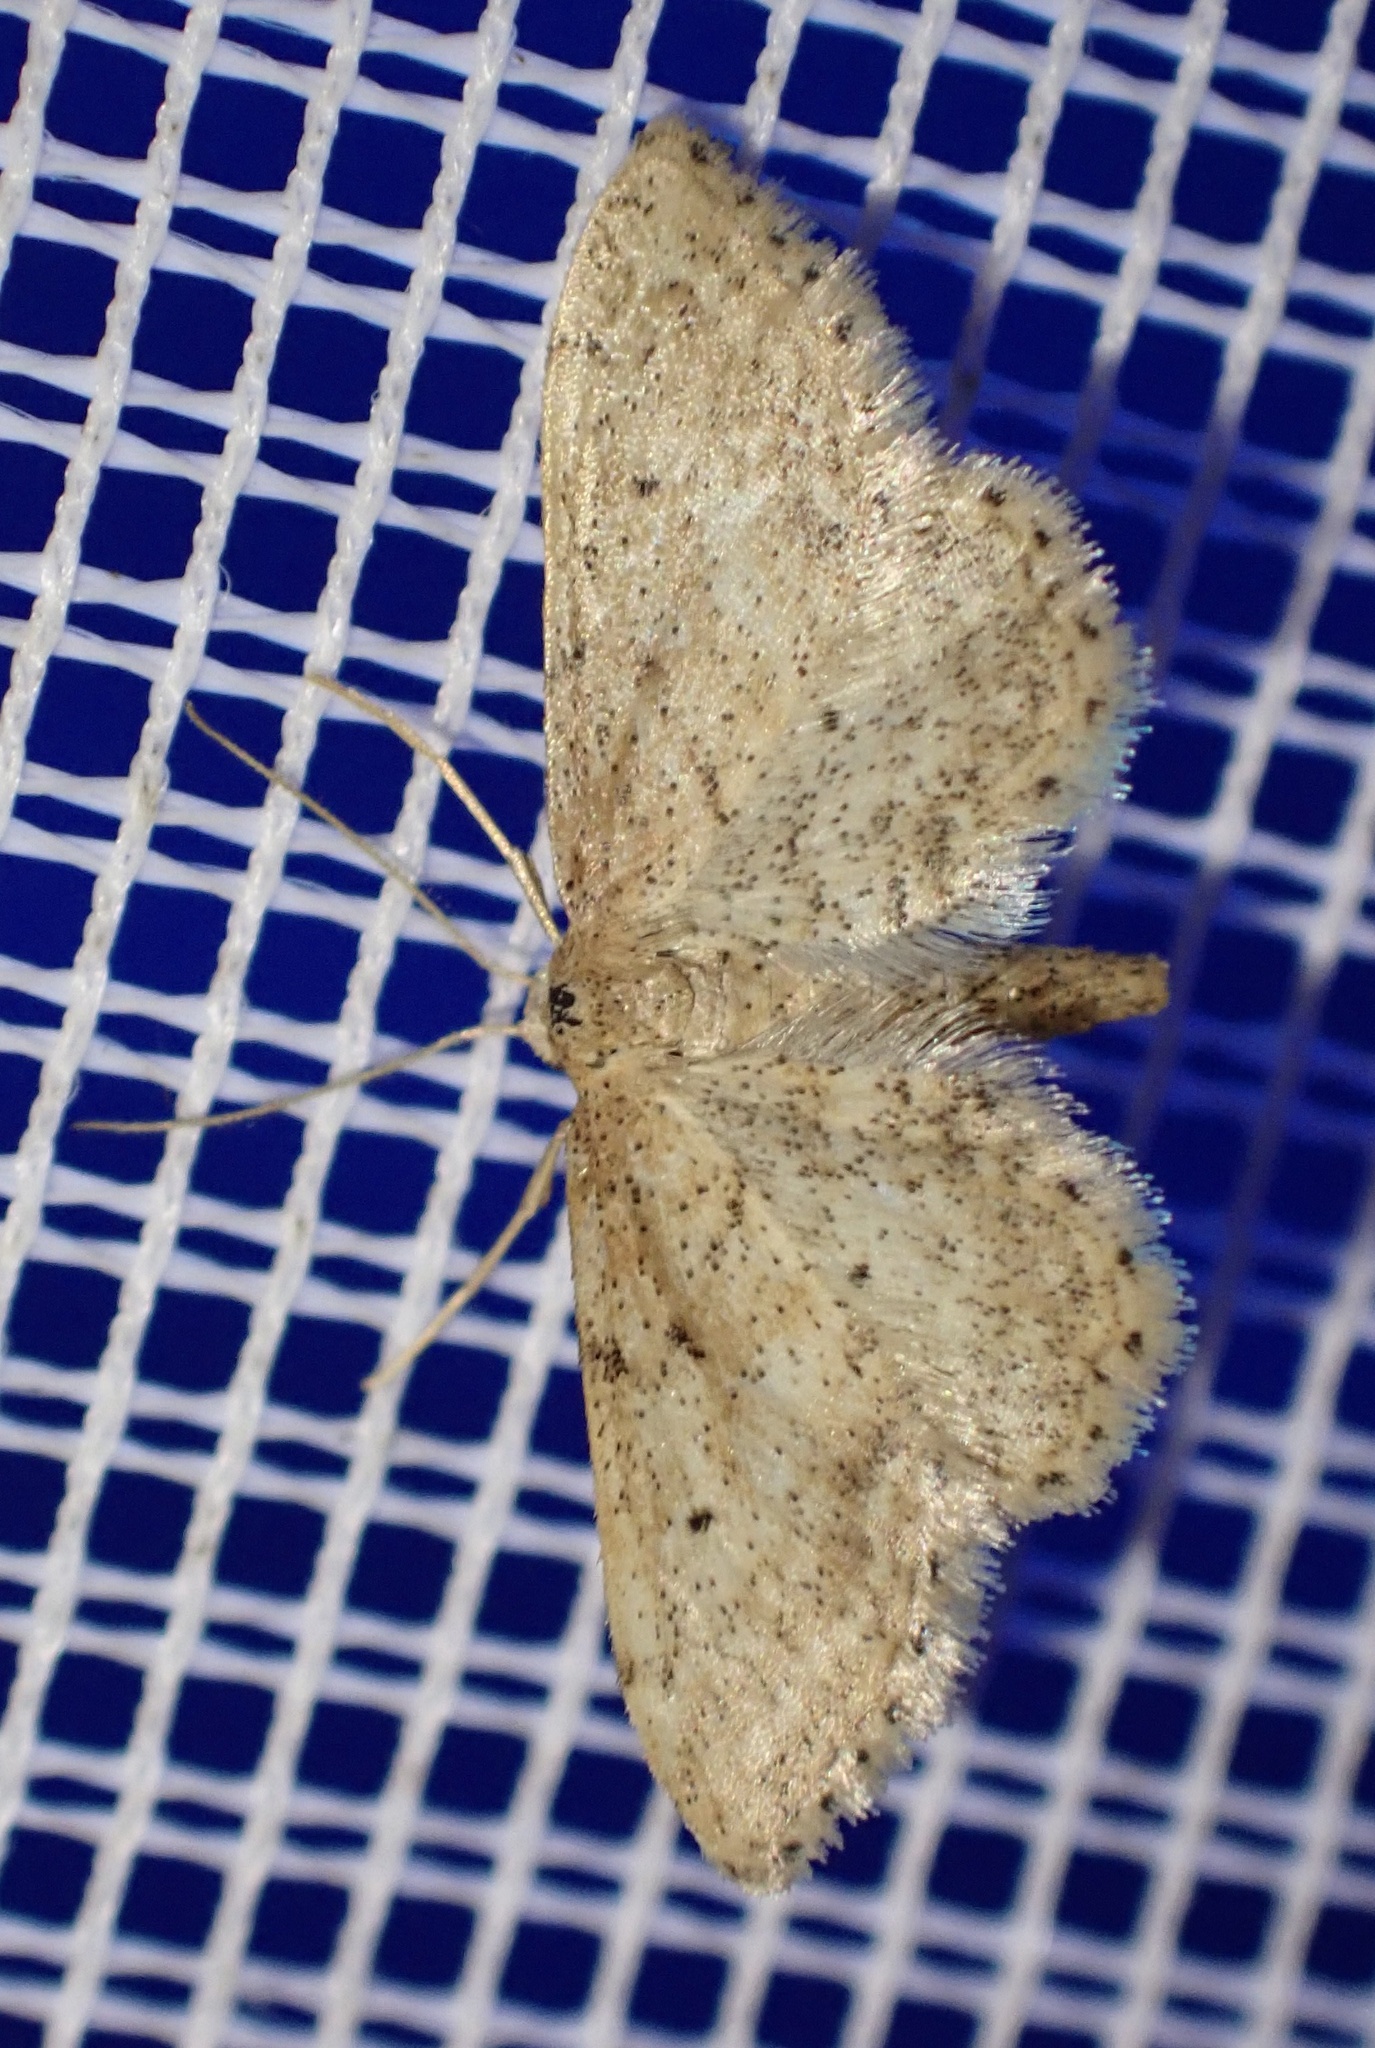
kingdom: Animalia
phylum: Arthropoda
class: Insecta
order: Lepidoptera
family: Geometridae
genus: Idaea
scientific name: Idaea fractilineata
